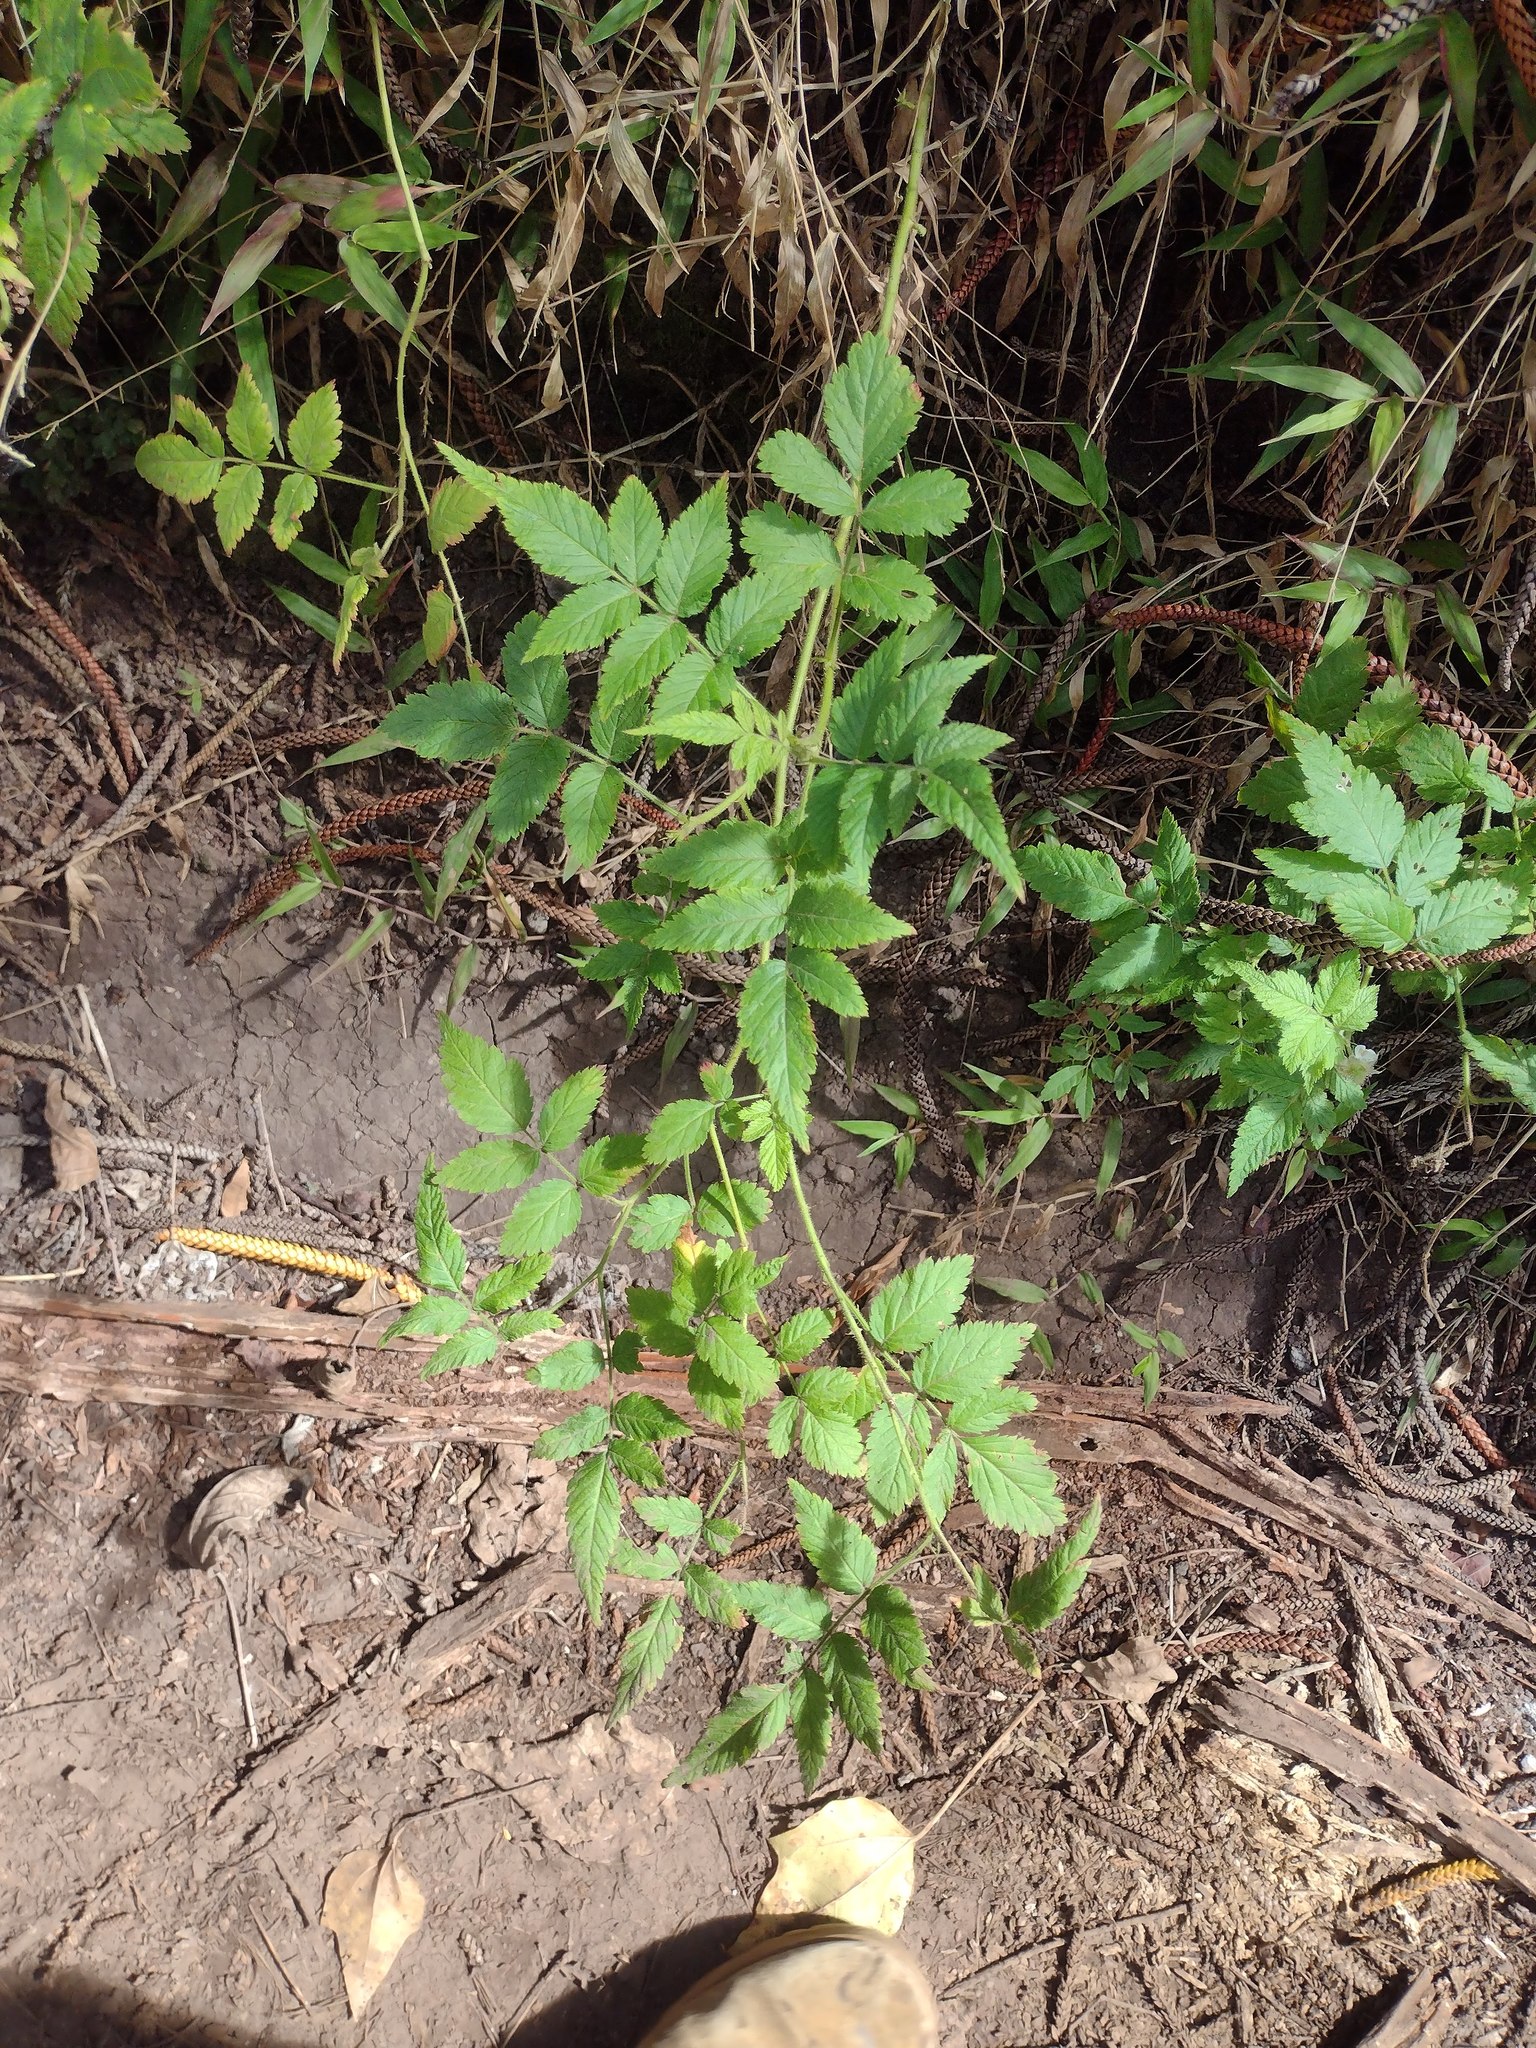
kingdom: Plantae
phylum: Tracheophyta
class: Magnoliopsida
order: Rosales
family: Rosaceae
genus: Rubus
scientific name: Rubus rosifolius
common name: Roseleaf raspberry
